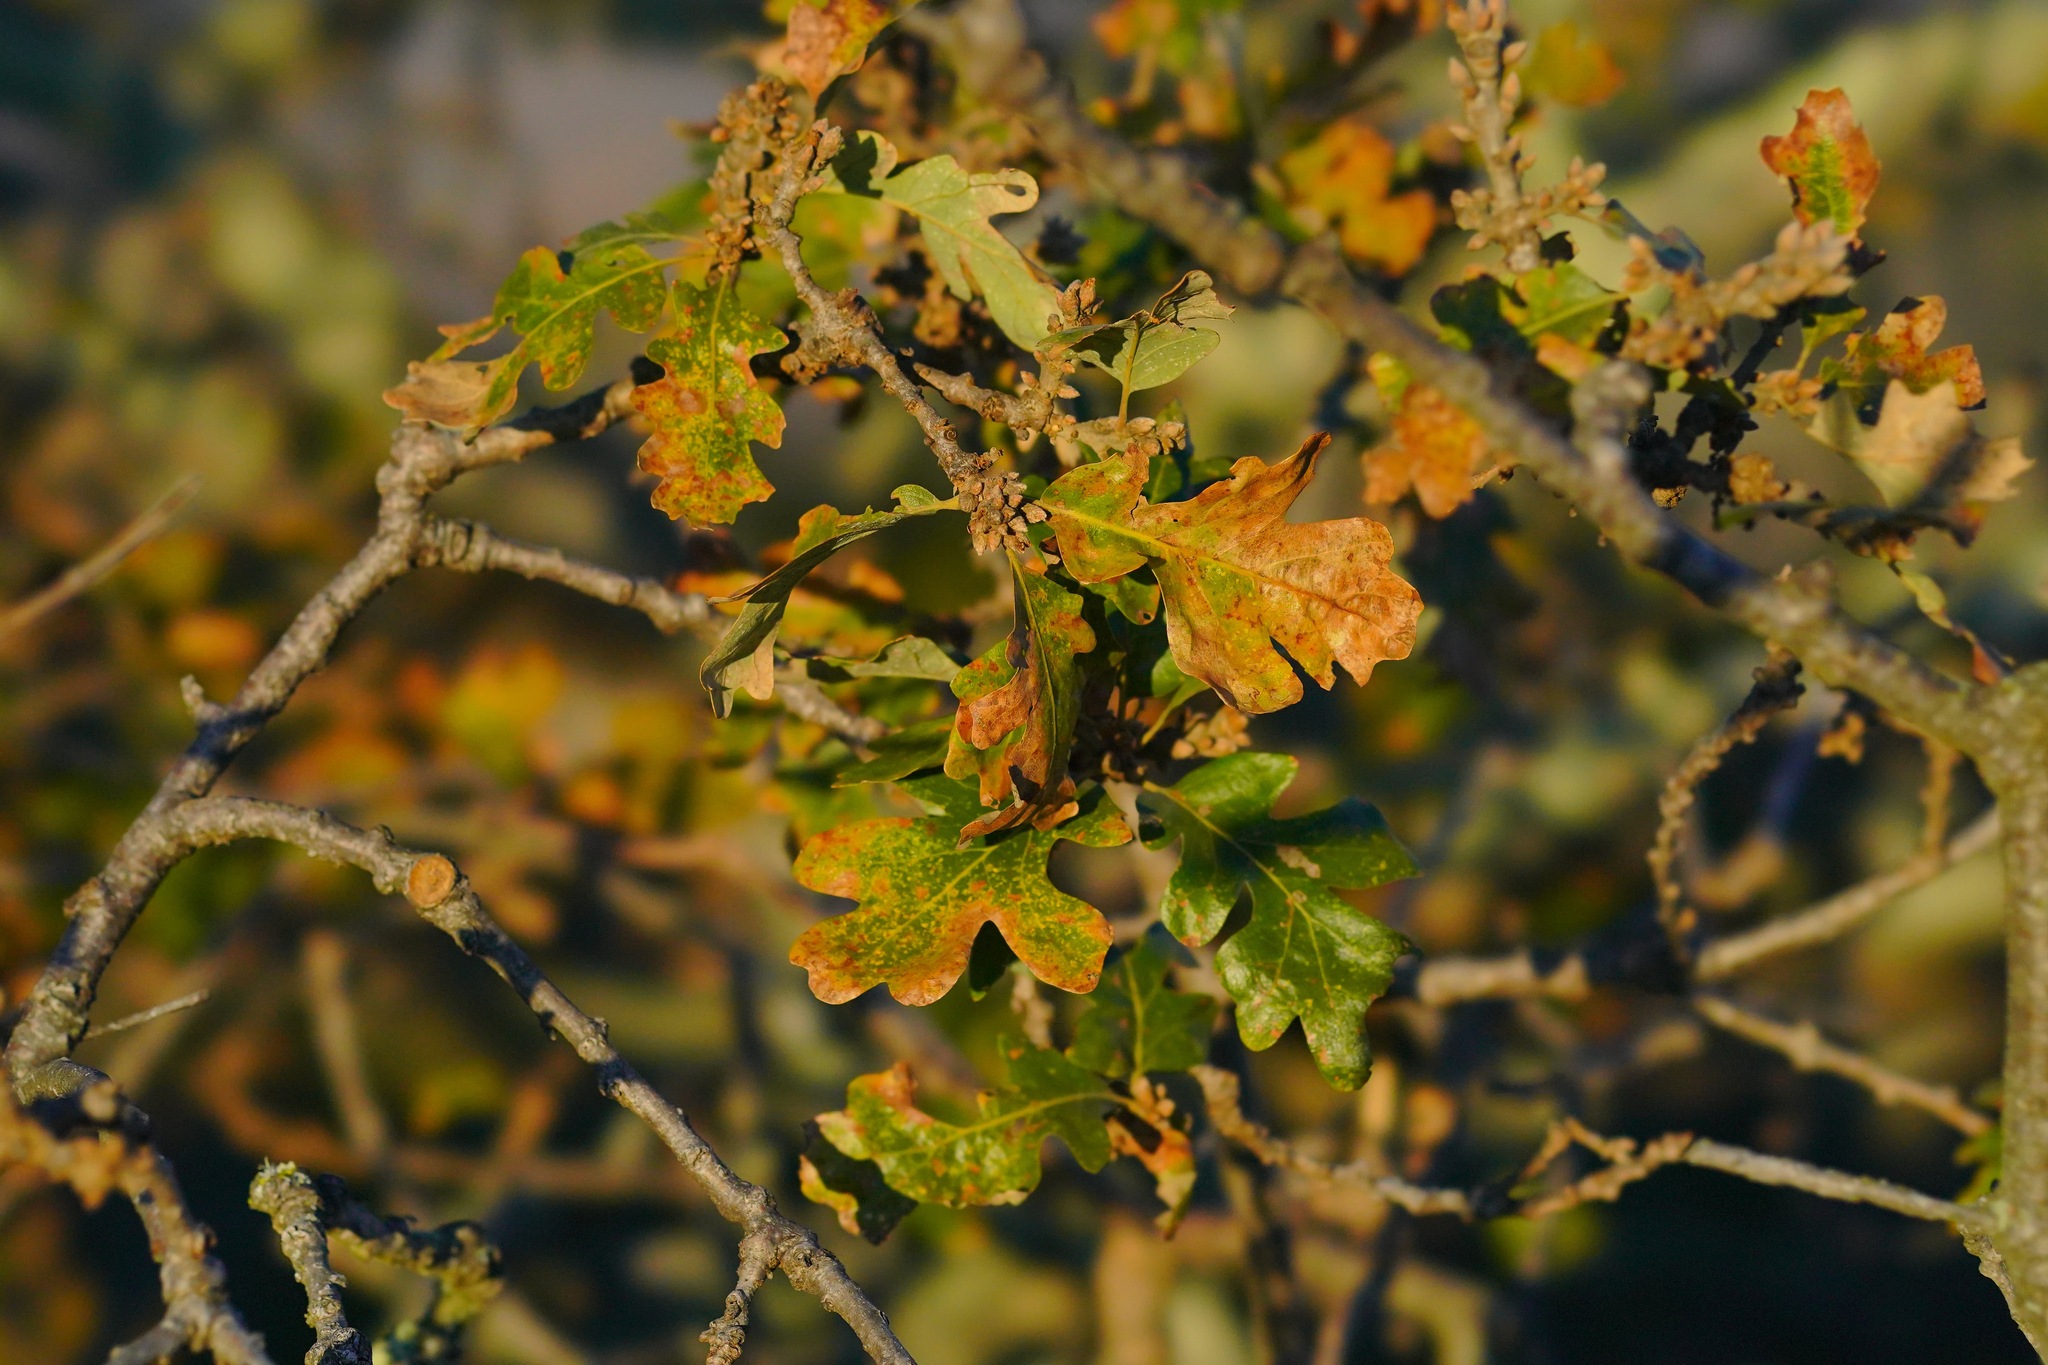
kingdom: Plantae
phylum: Tracheophyta
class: Magnoliopsida
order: Fagales
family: Fagaceae
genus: Quercus
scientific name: Quercus garryana
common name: Garry oak
